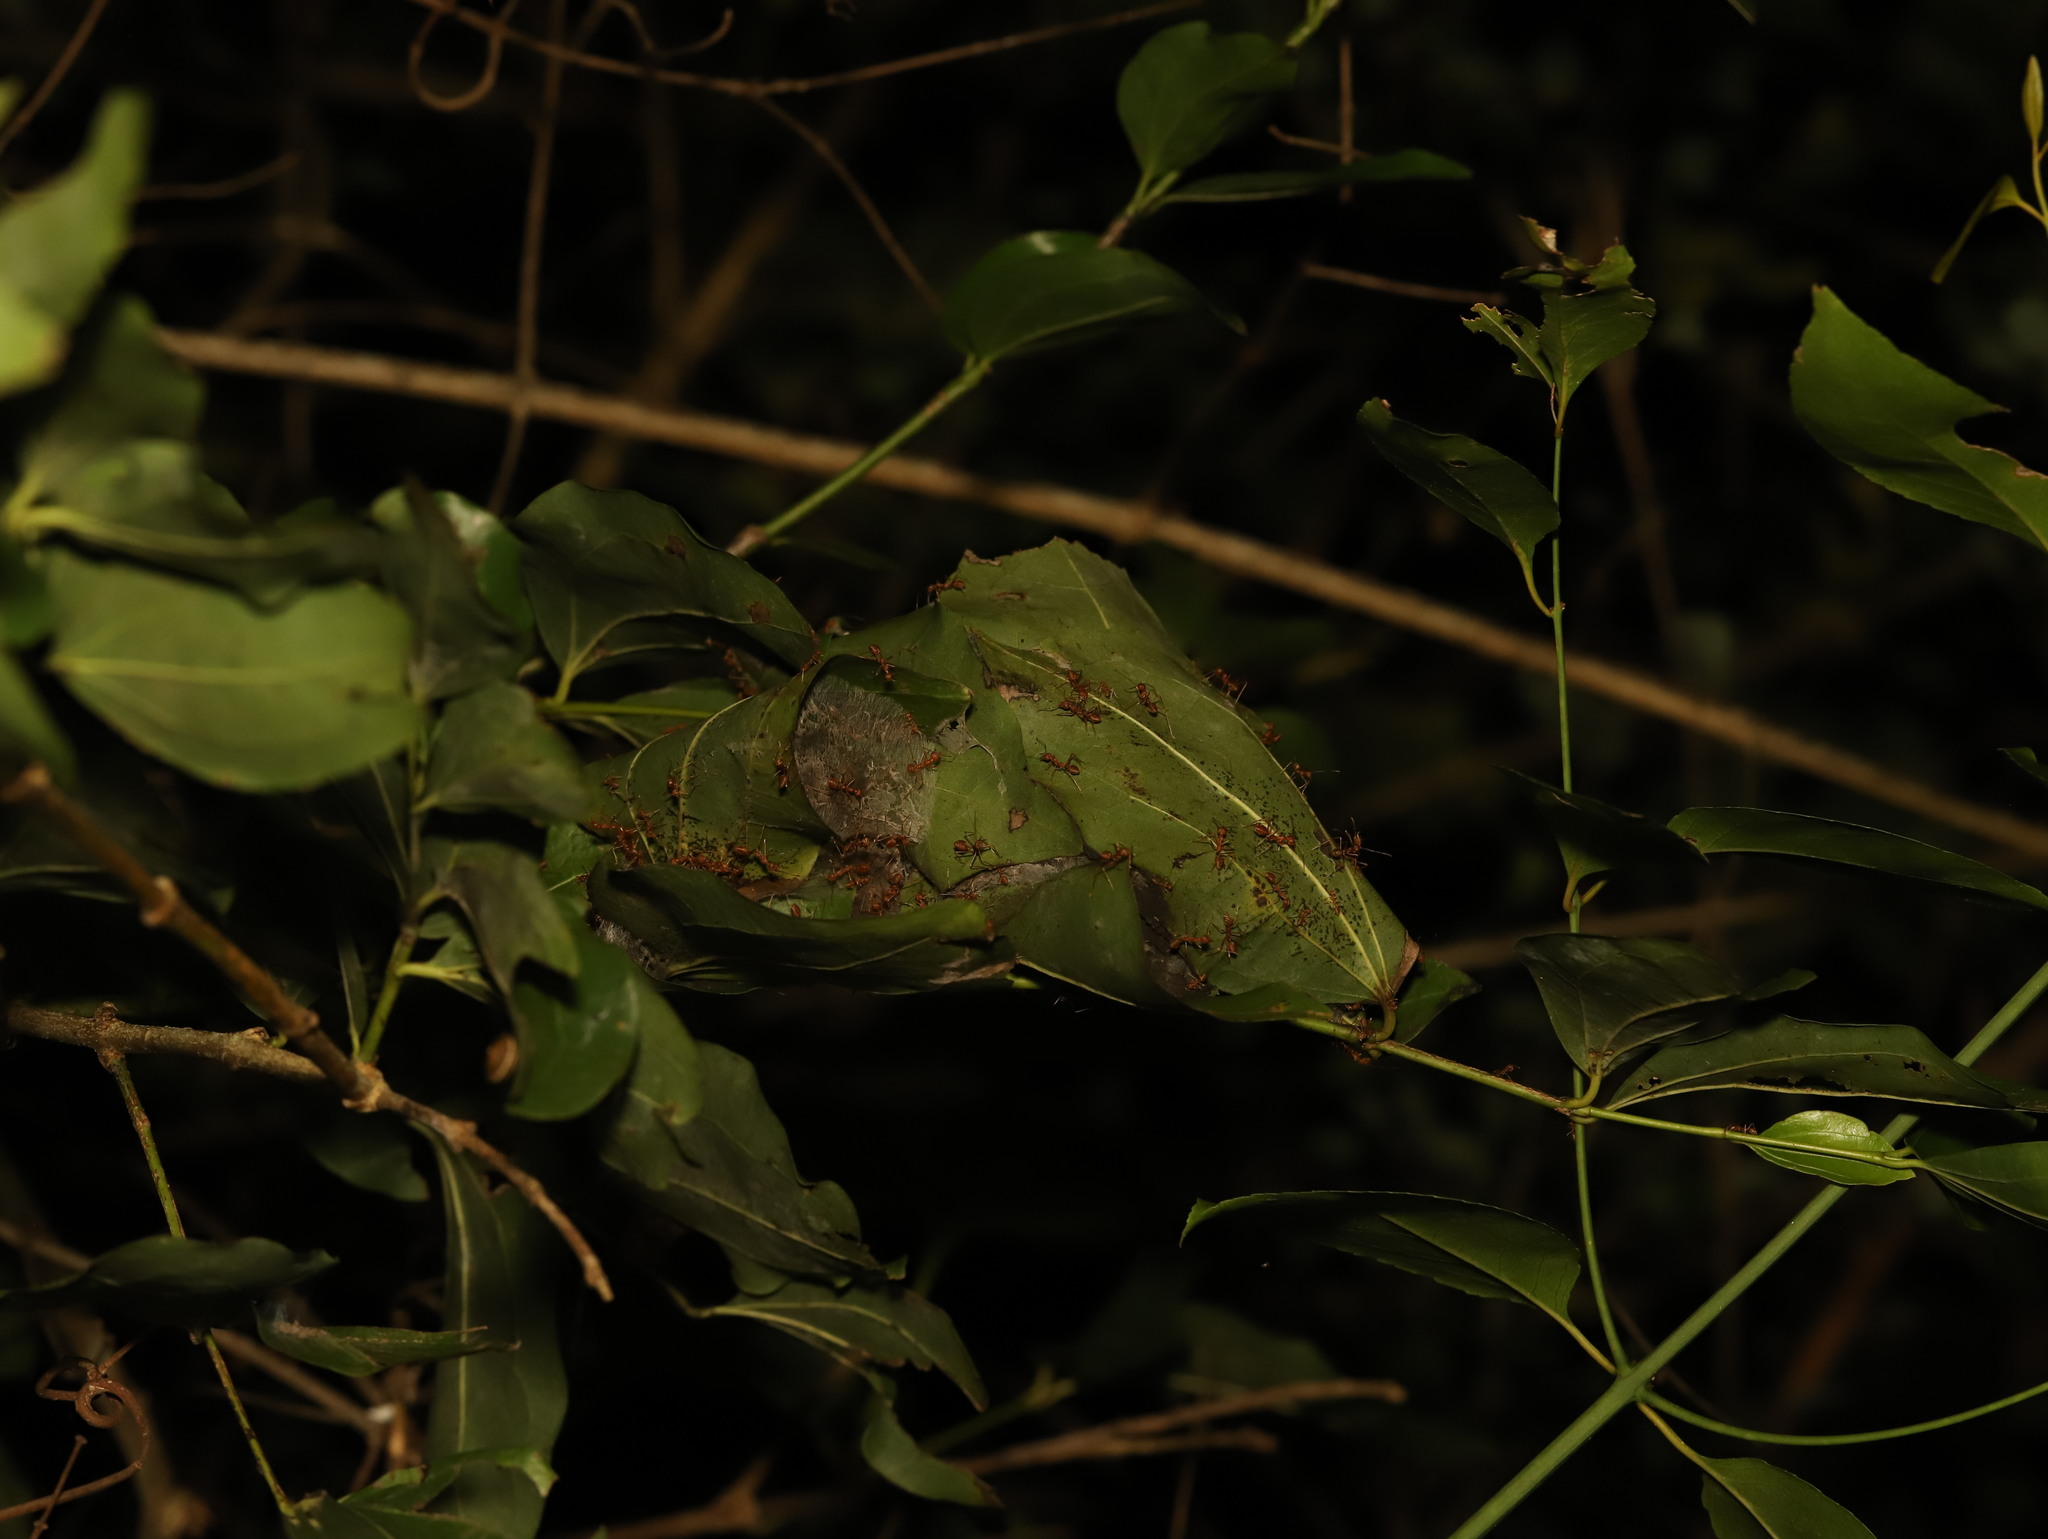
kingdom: Animalia
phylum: Arthropoda
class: Insecta
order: Hymenoptera
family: Formicidae
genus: Oecophylla
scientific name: Oecophylla smaragdina
